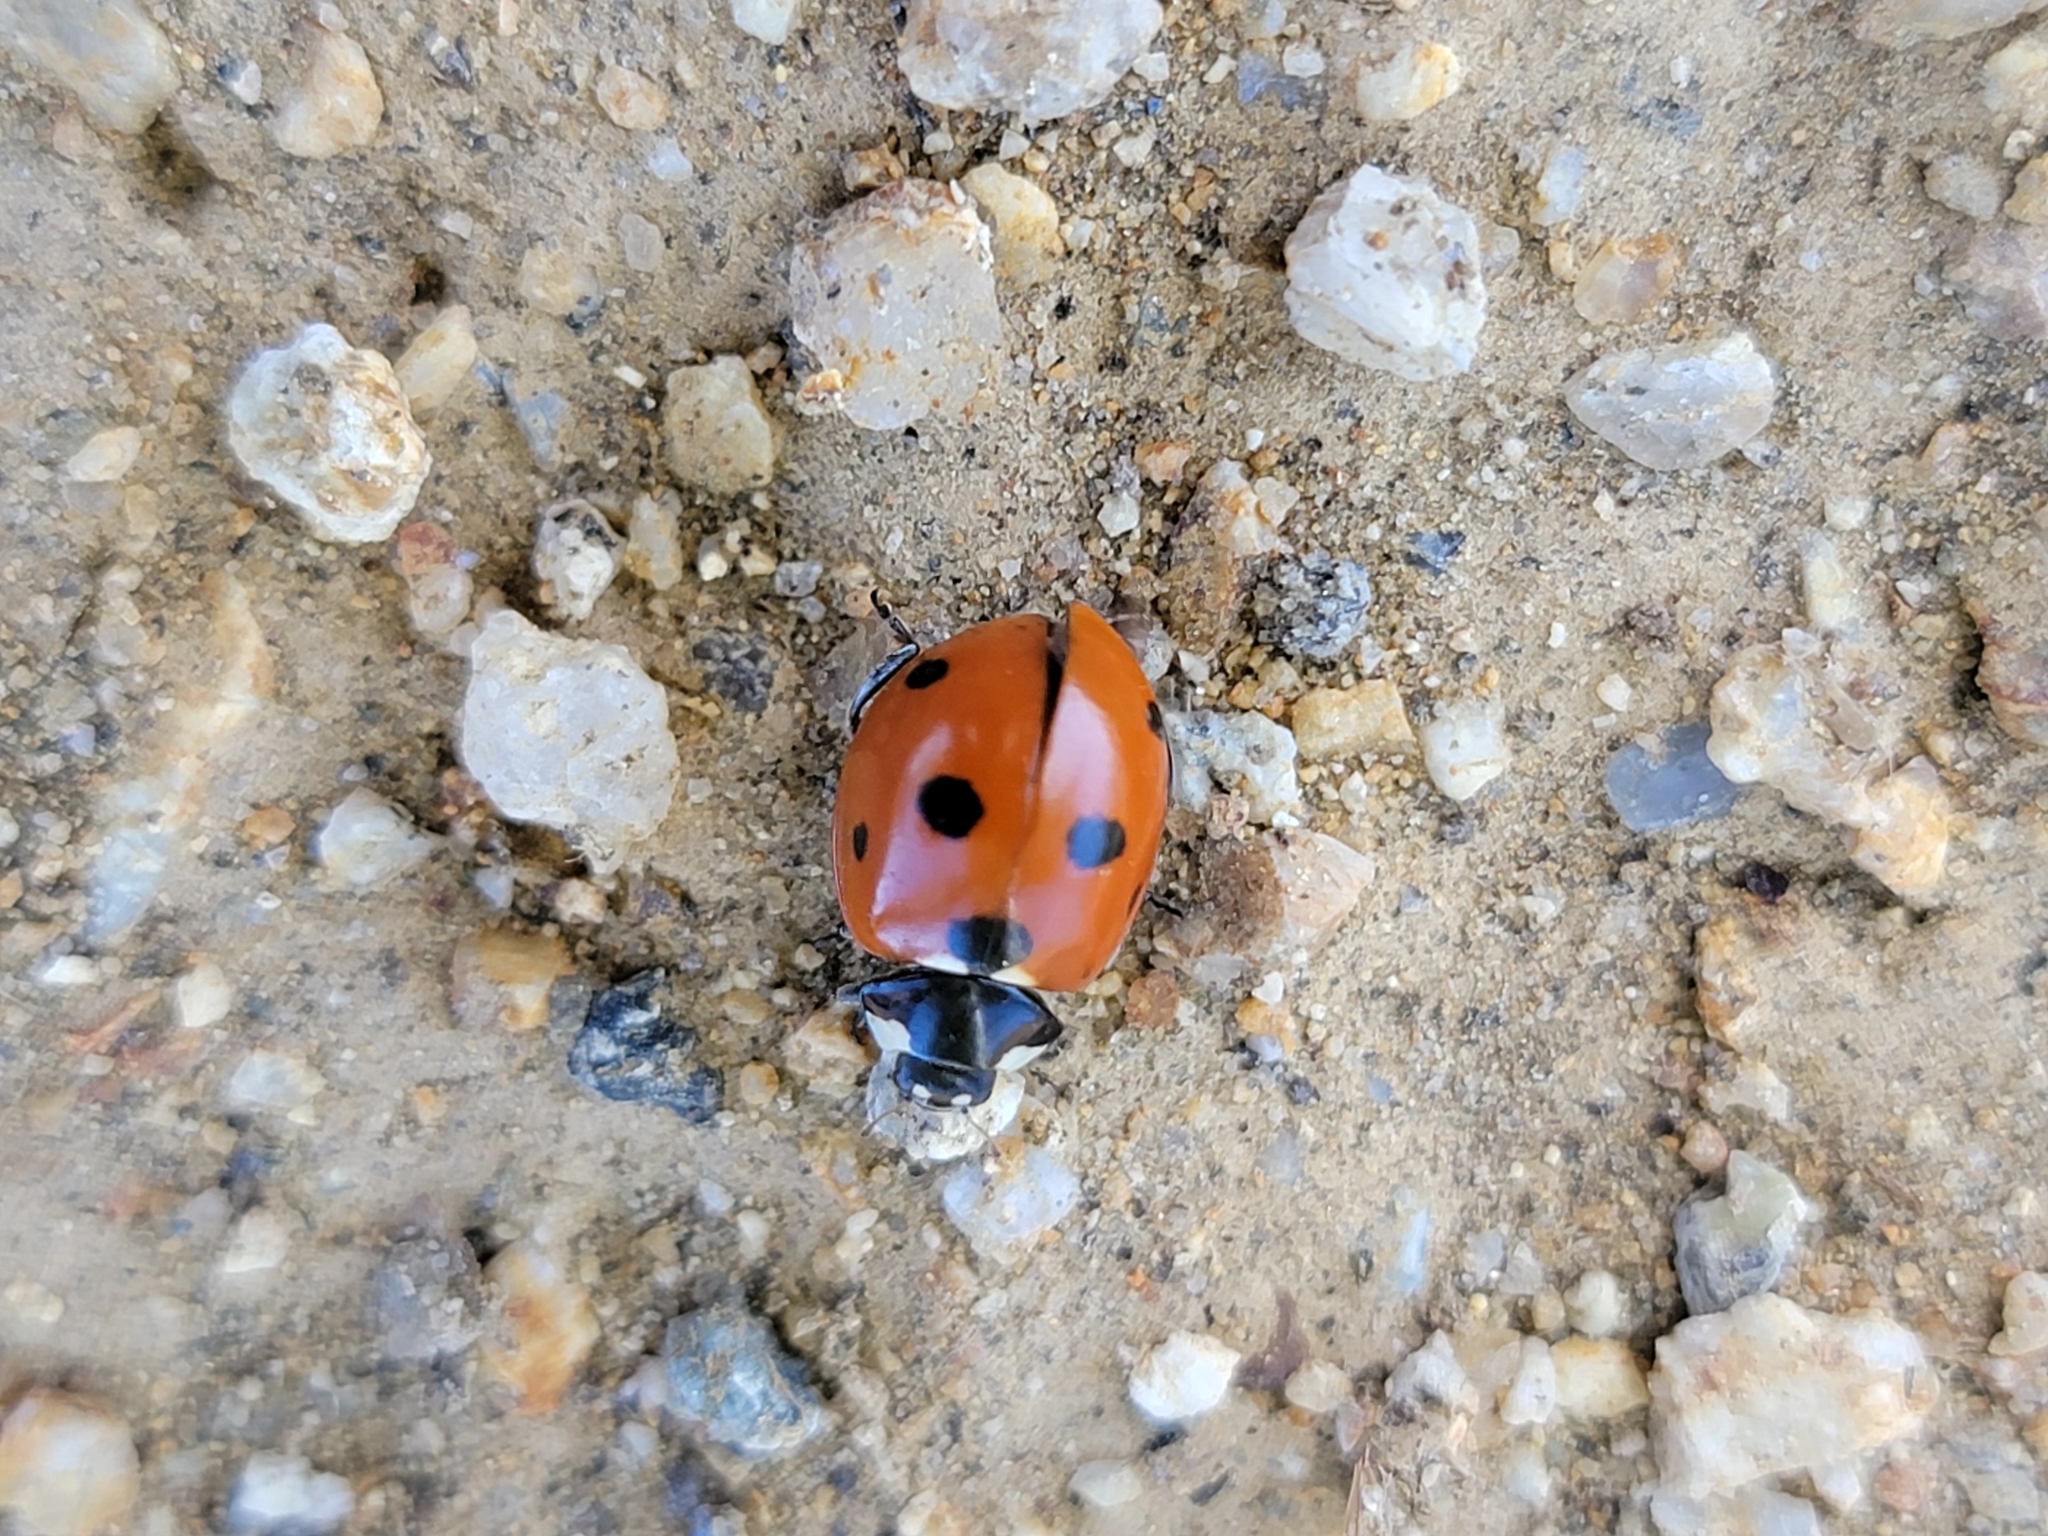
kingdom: Animalia
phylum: Arthropoda
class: Insecta
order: Coleoptera
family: Coccinellidae
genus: Coccinella
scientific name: Coccinella septempunctata
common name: Sevenspotted lady beetle
